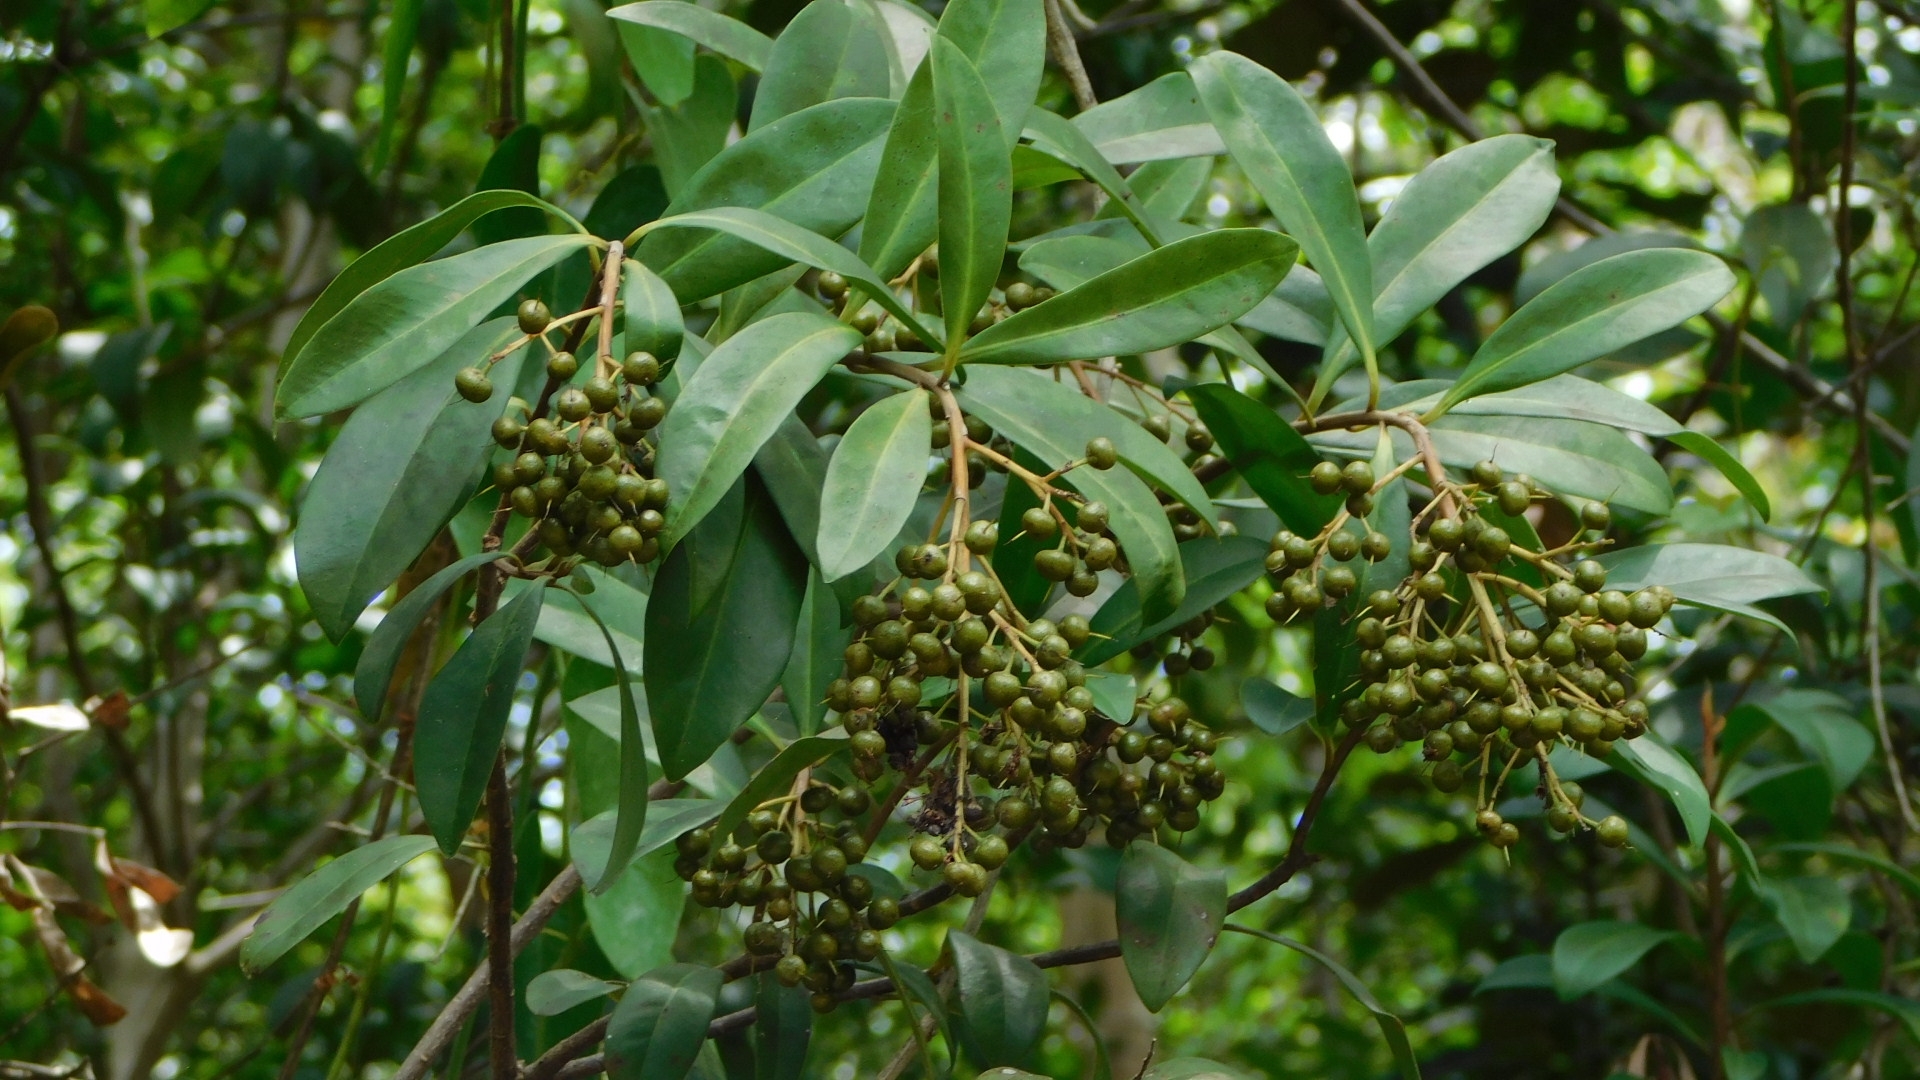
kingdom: Plantae
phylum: Tracheophyta
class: Magnoliopsida
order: Ericales
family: Primulaceae
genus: Ardisia
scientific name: Ardisia escallonioides
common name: Island marlberry
